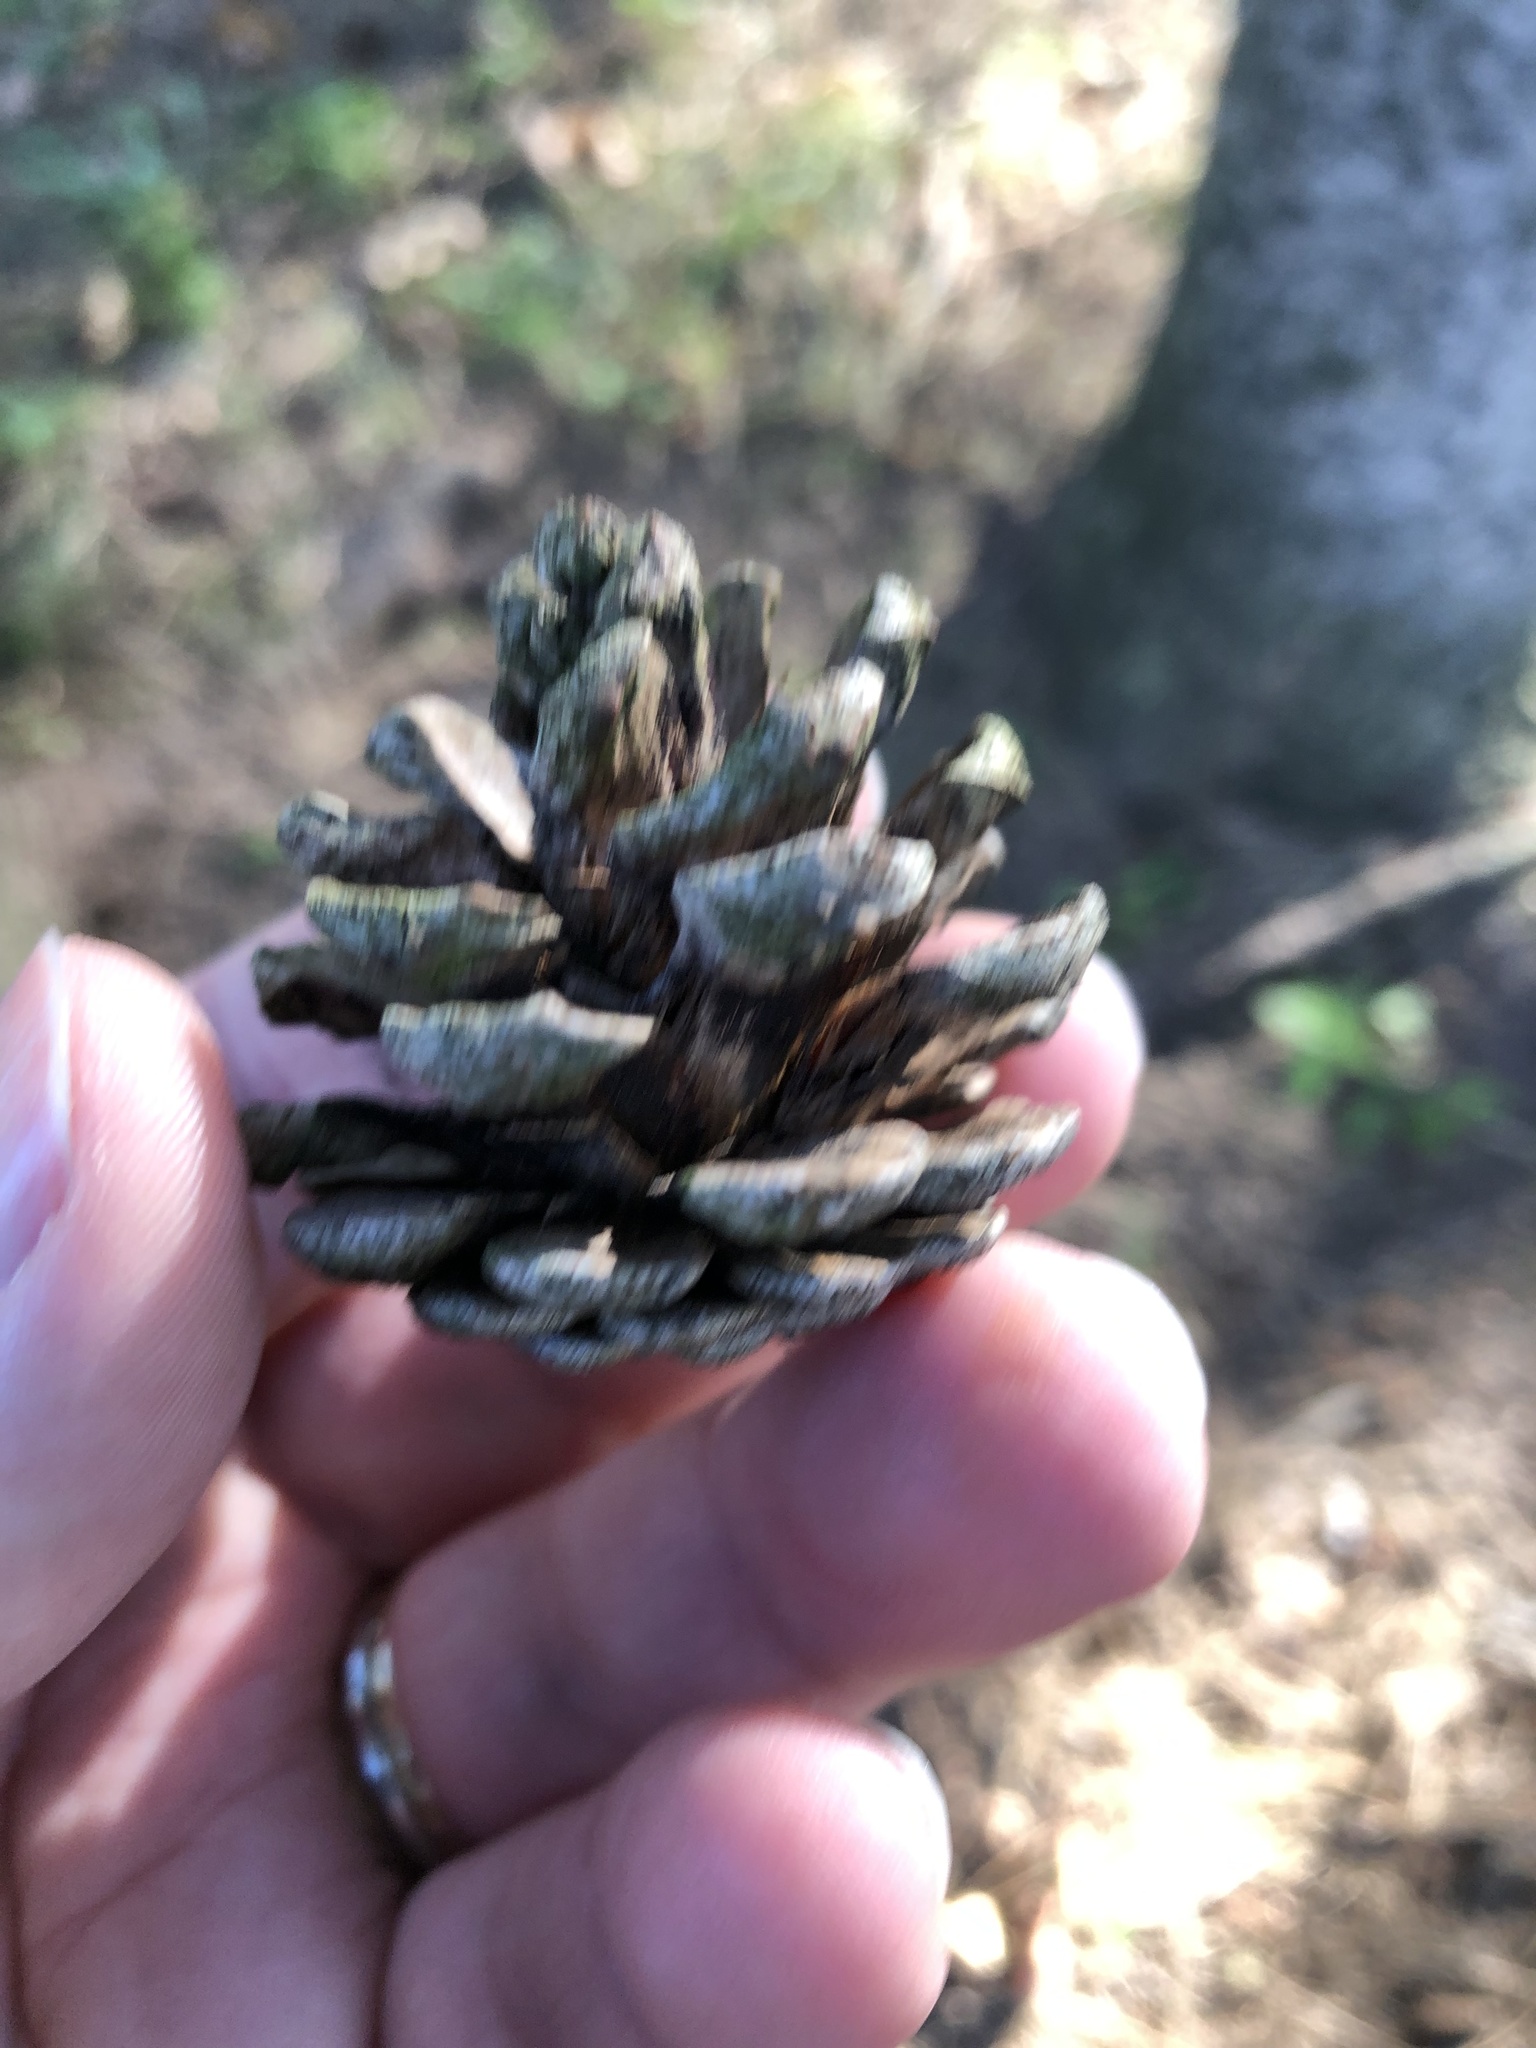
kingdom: Plantae
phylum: Tracheophyta
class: Pinopsida
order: Pinales
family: Pinaceae
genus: Pinus
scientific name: Pinus resinosa
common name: Norway pine
